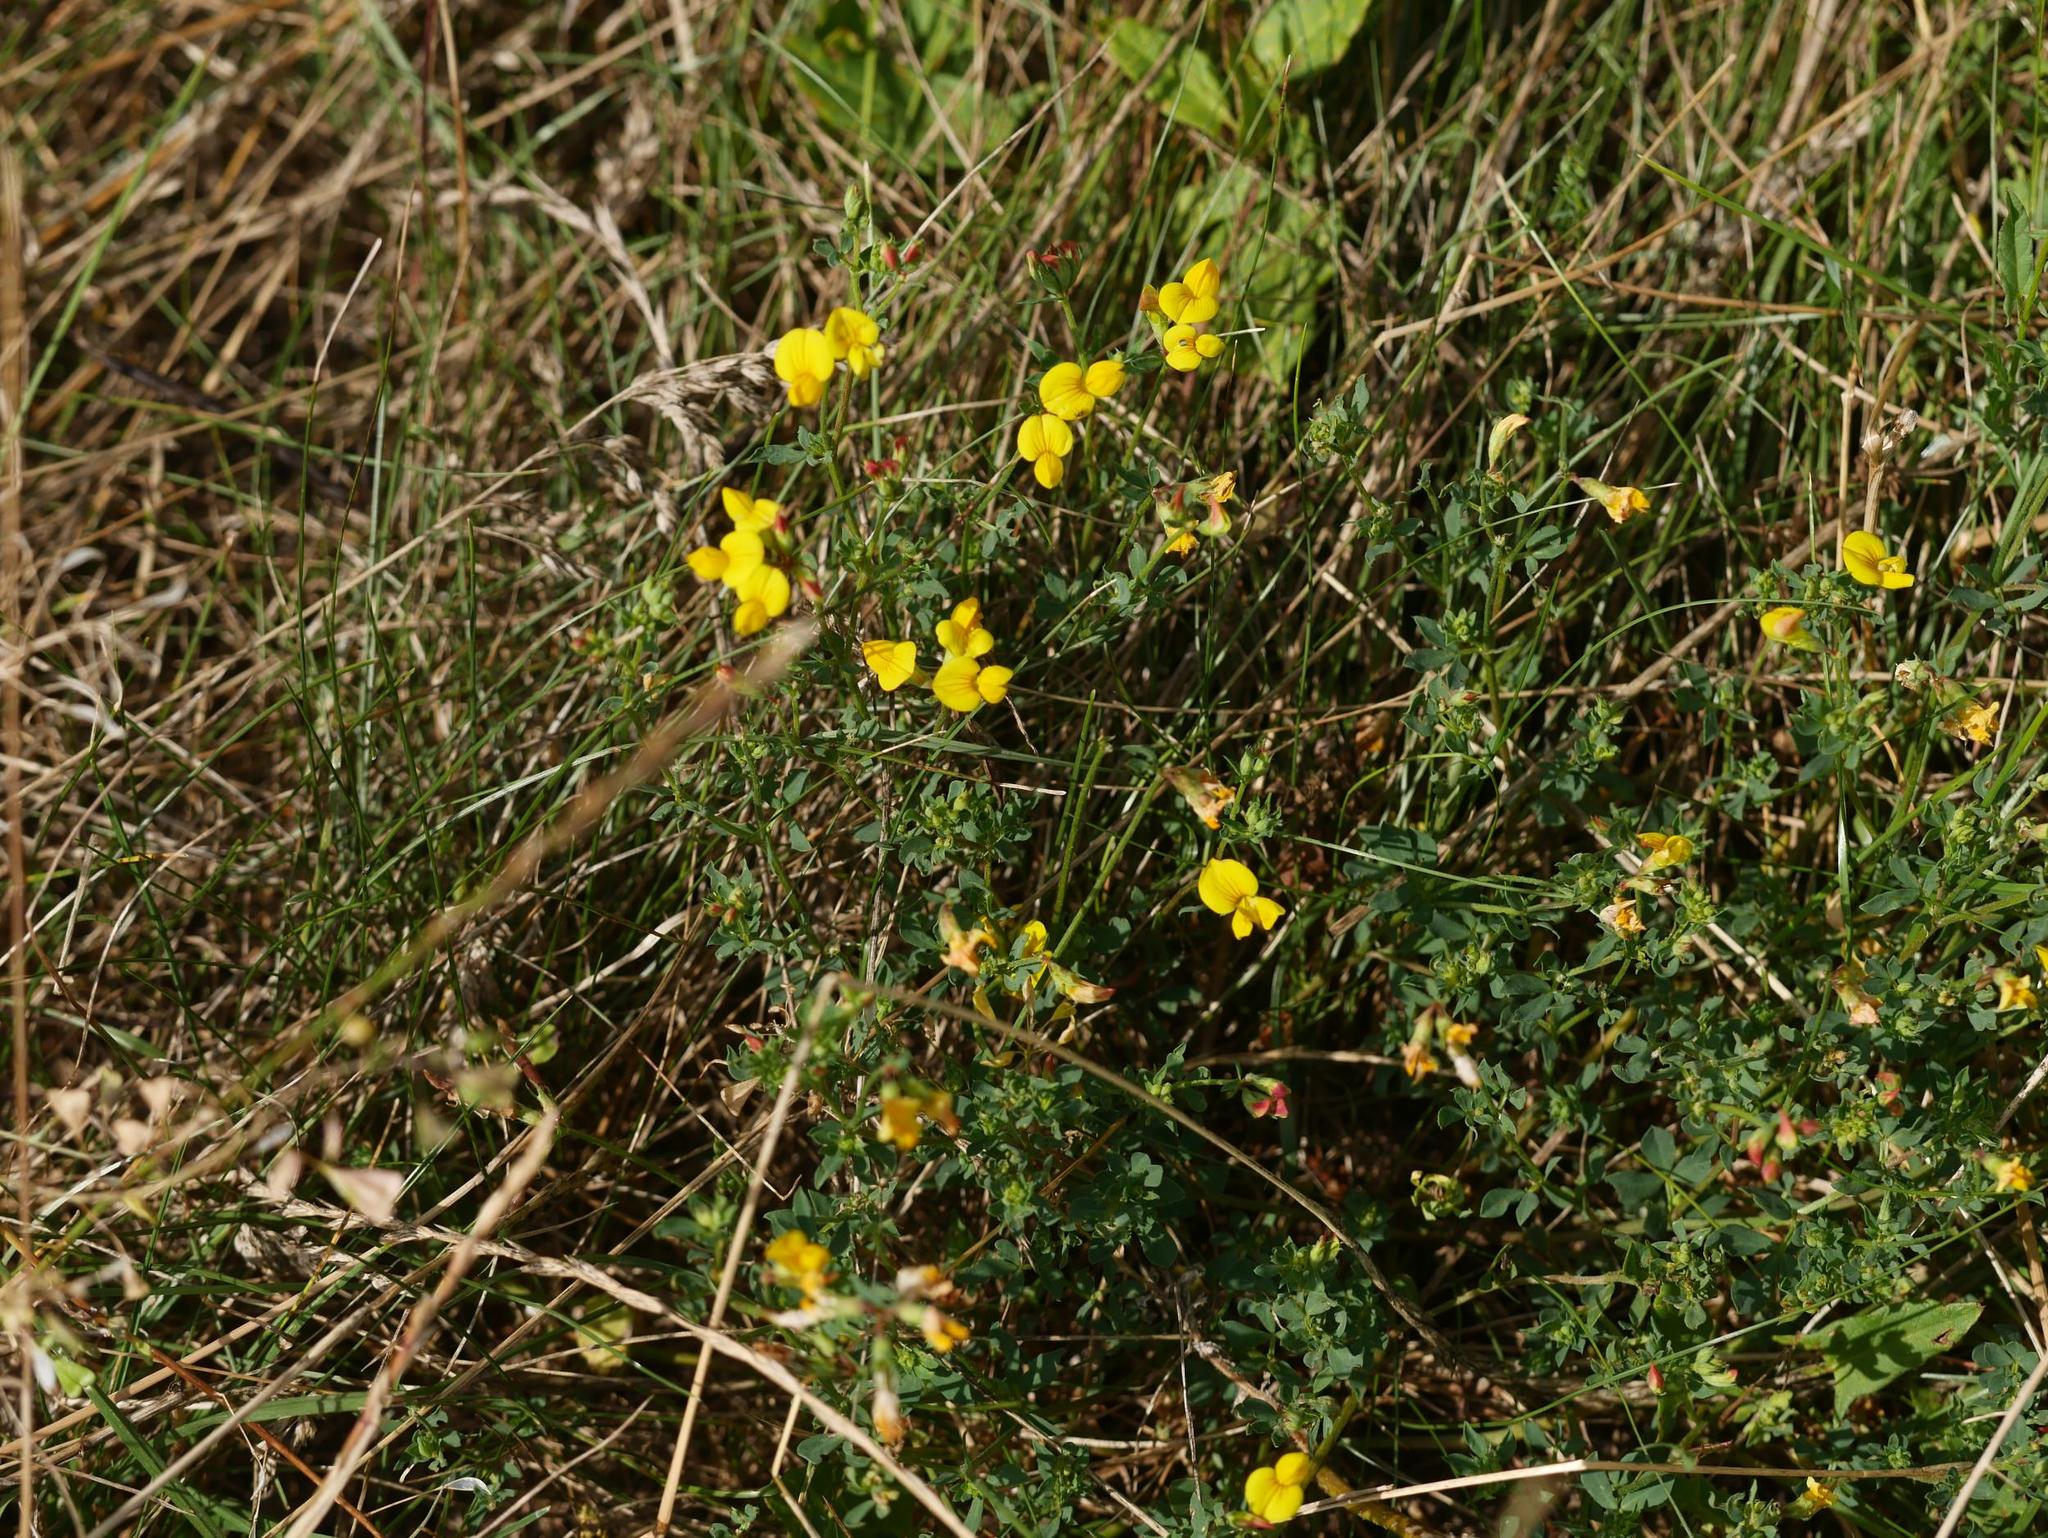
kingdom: Plantae
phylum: Tracheophyta
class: Magnoliopsida
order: Fabales
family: Fabaceae
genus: Lotus
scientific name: Lotus corniculatus
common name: Common bird's-foot-trefoil
